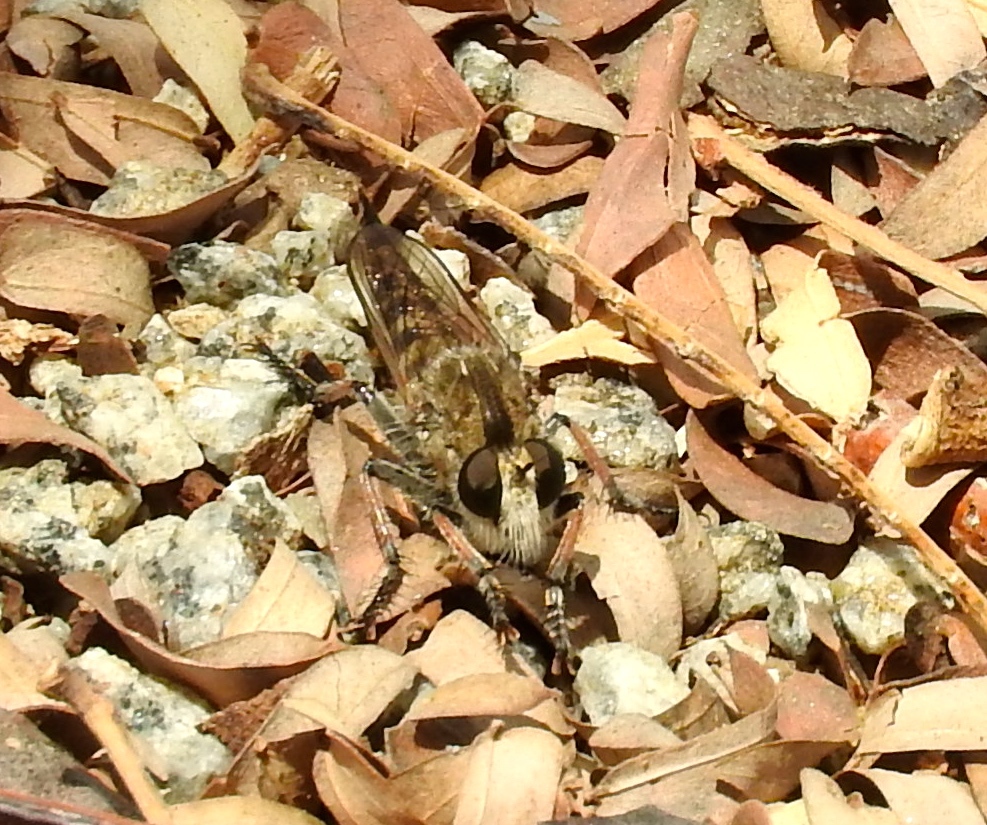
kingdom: Animalia
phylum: Arthropoda
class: Insecta
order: Diptera
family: Asilidae
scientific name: Asilidae
